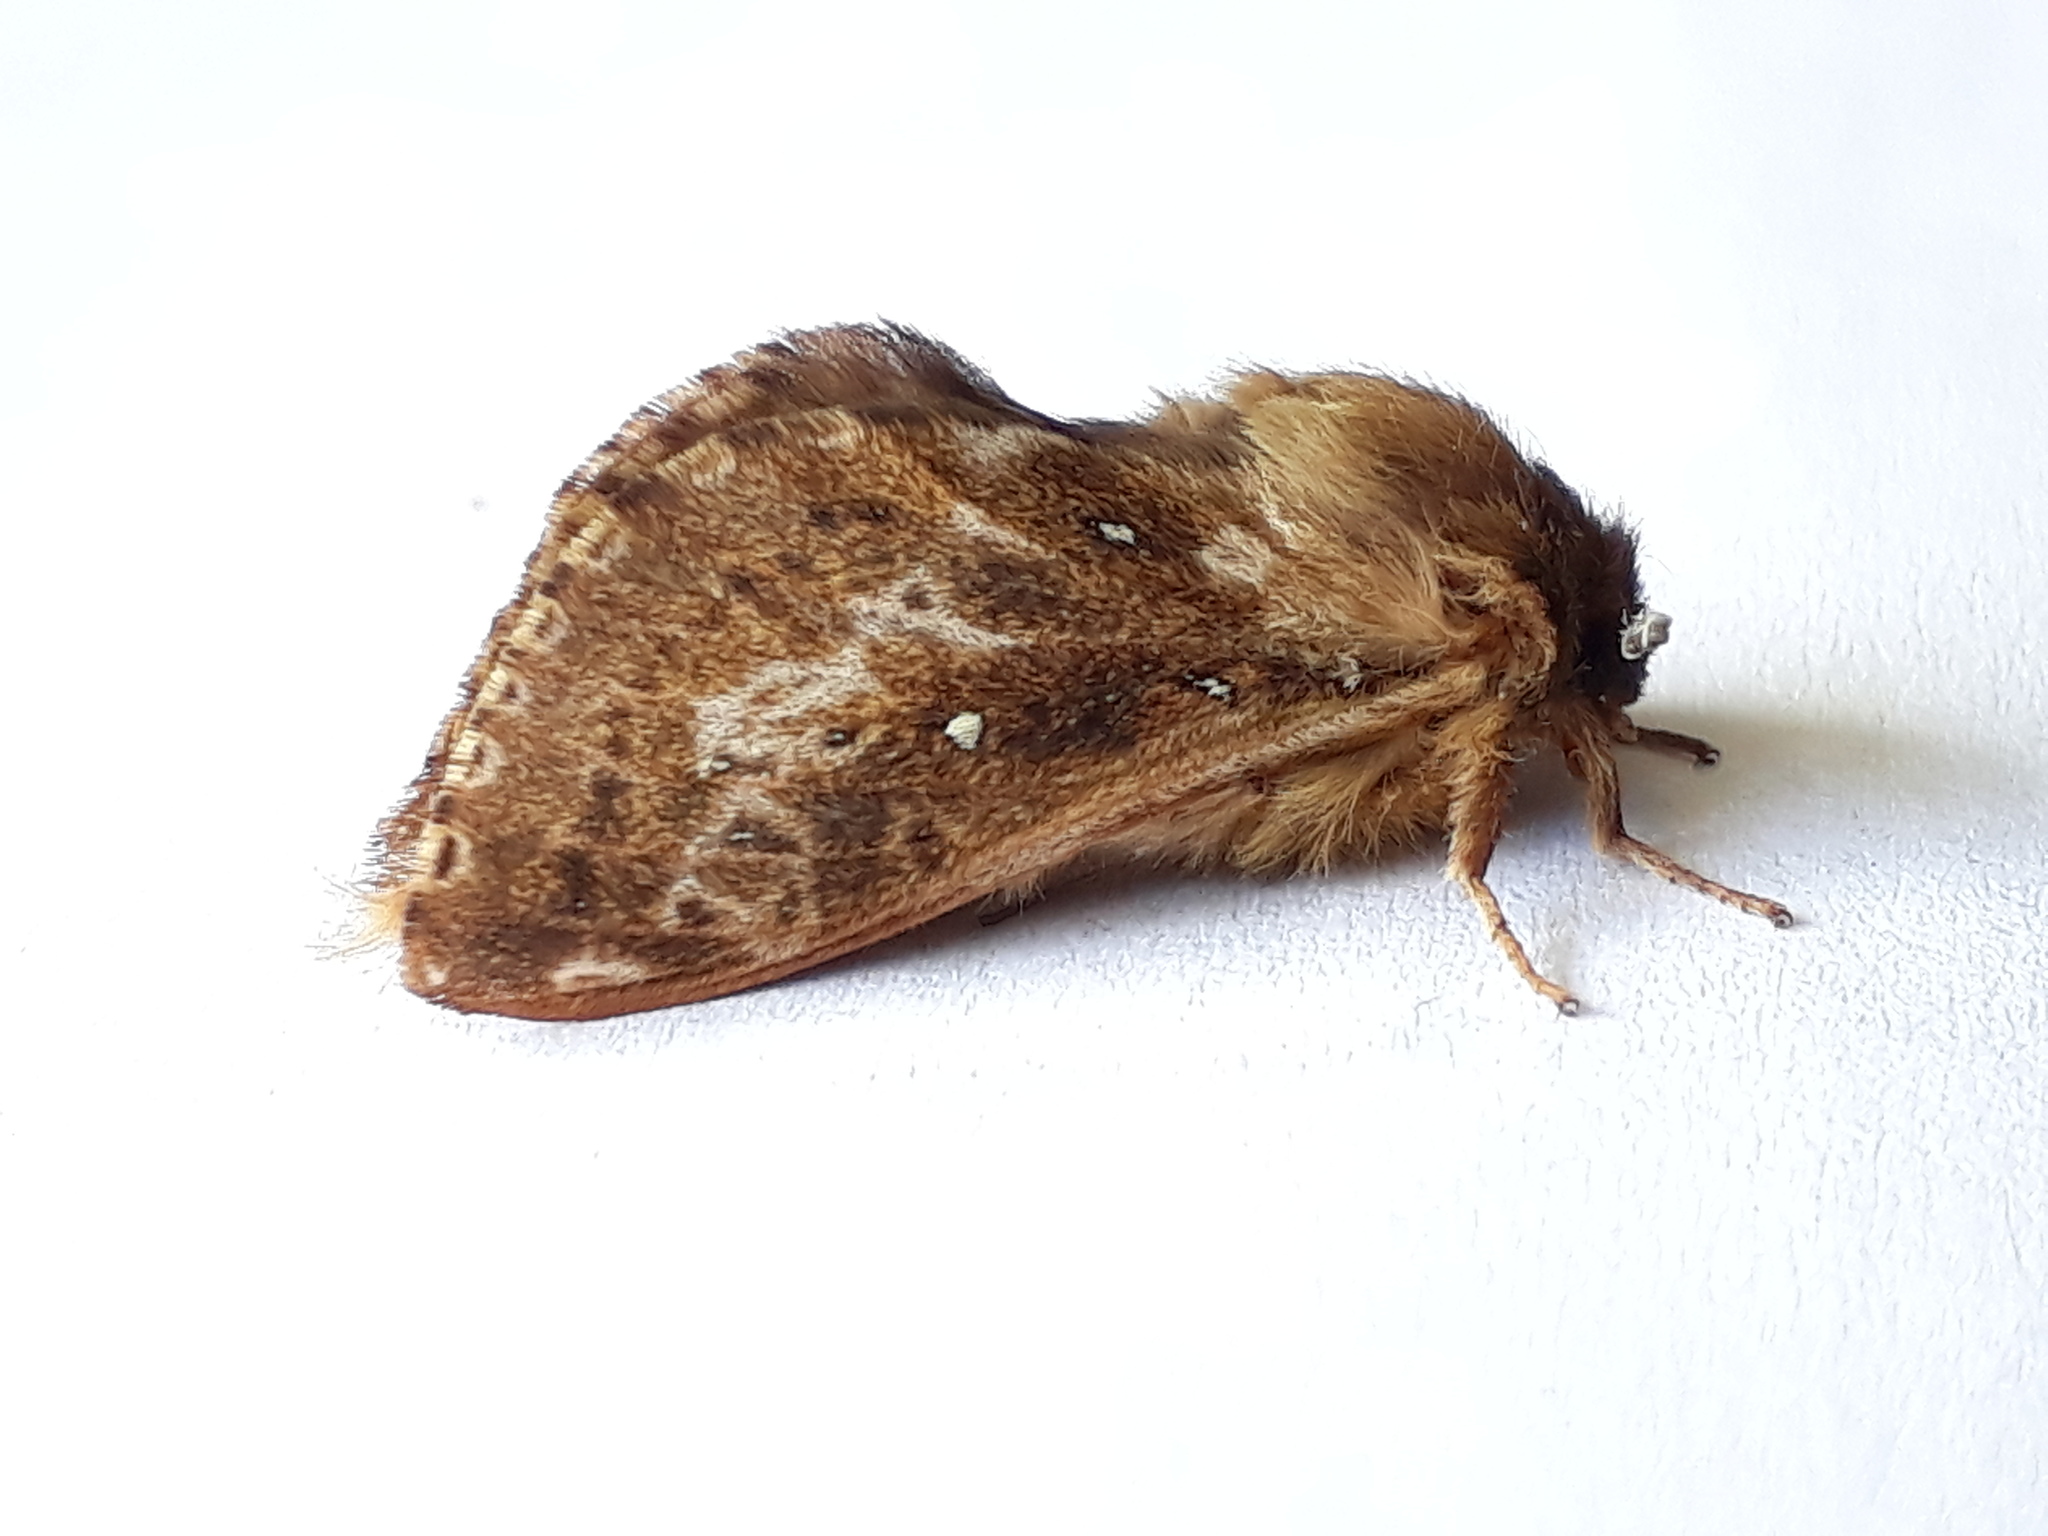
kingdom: Animalia
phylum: Arthropoda
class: Insecta
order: Lepidoptera
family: Hepialidae
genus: Wiseana
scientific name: Wiseana cervinata
